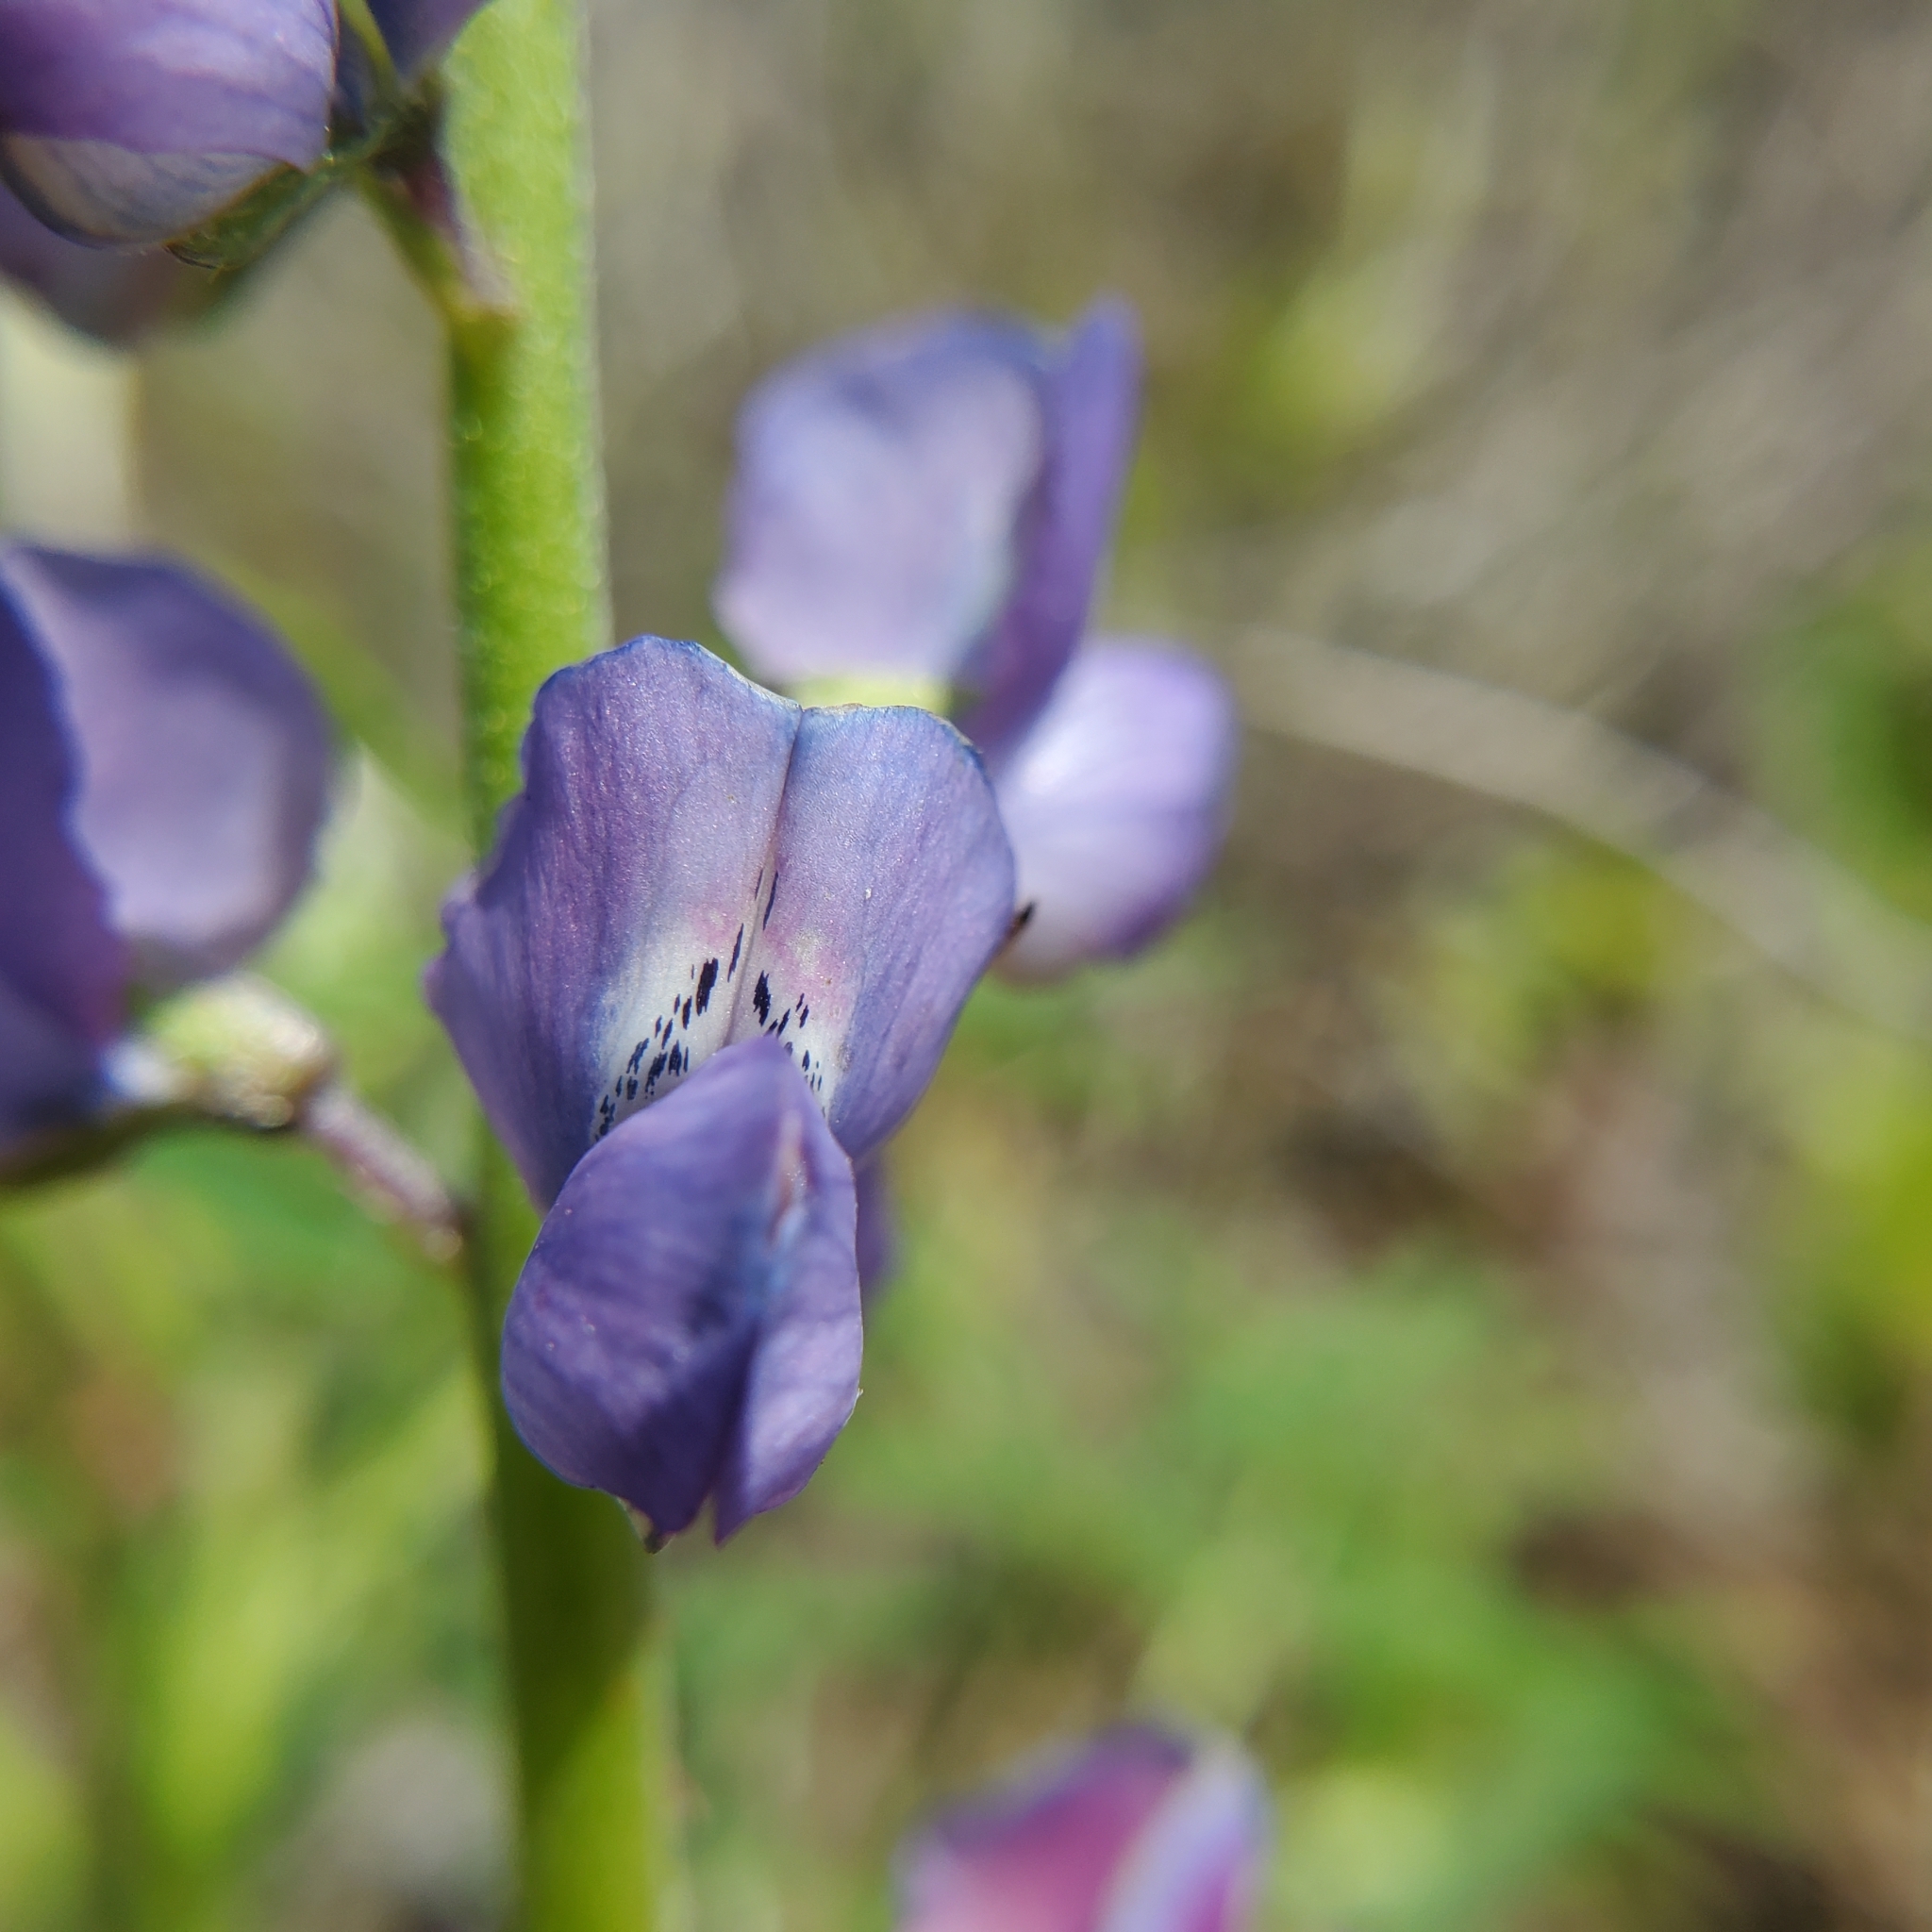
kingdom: Plantae
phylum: Tracheophyta
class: Magnoliopsida
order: Fabales
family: Fabaceae
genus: Lupinus
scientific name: Lupinus truncatus
